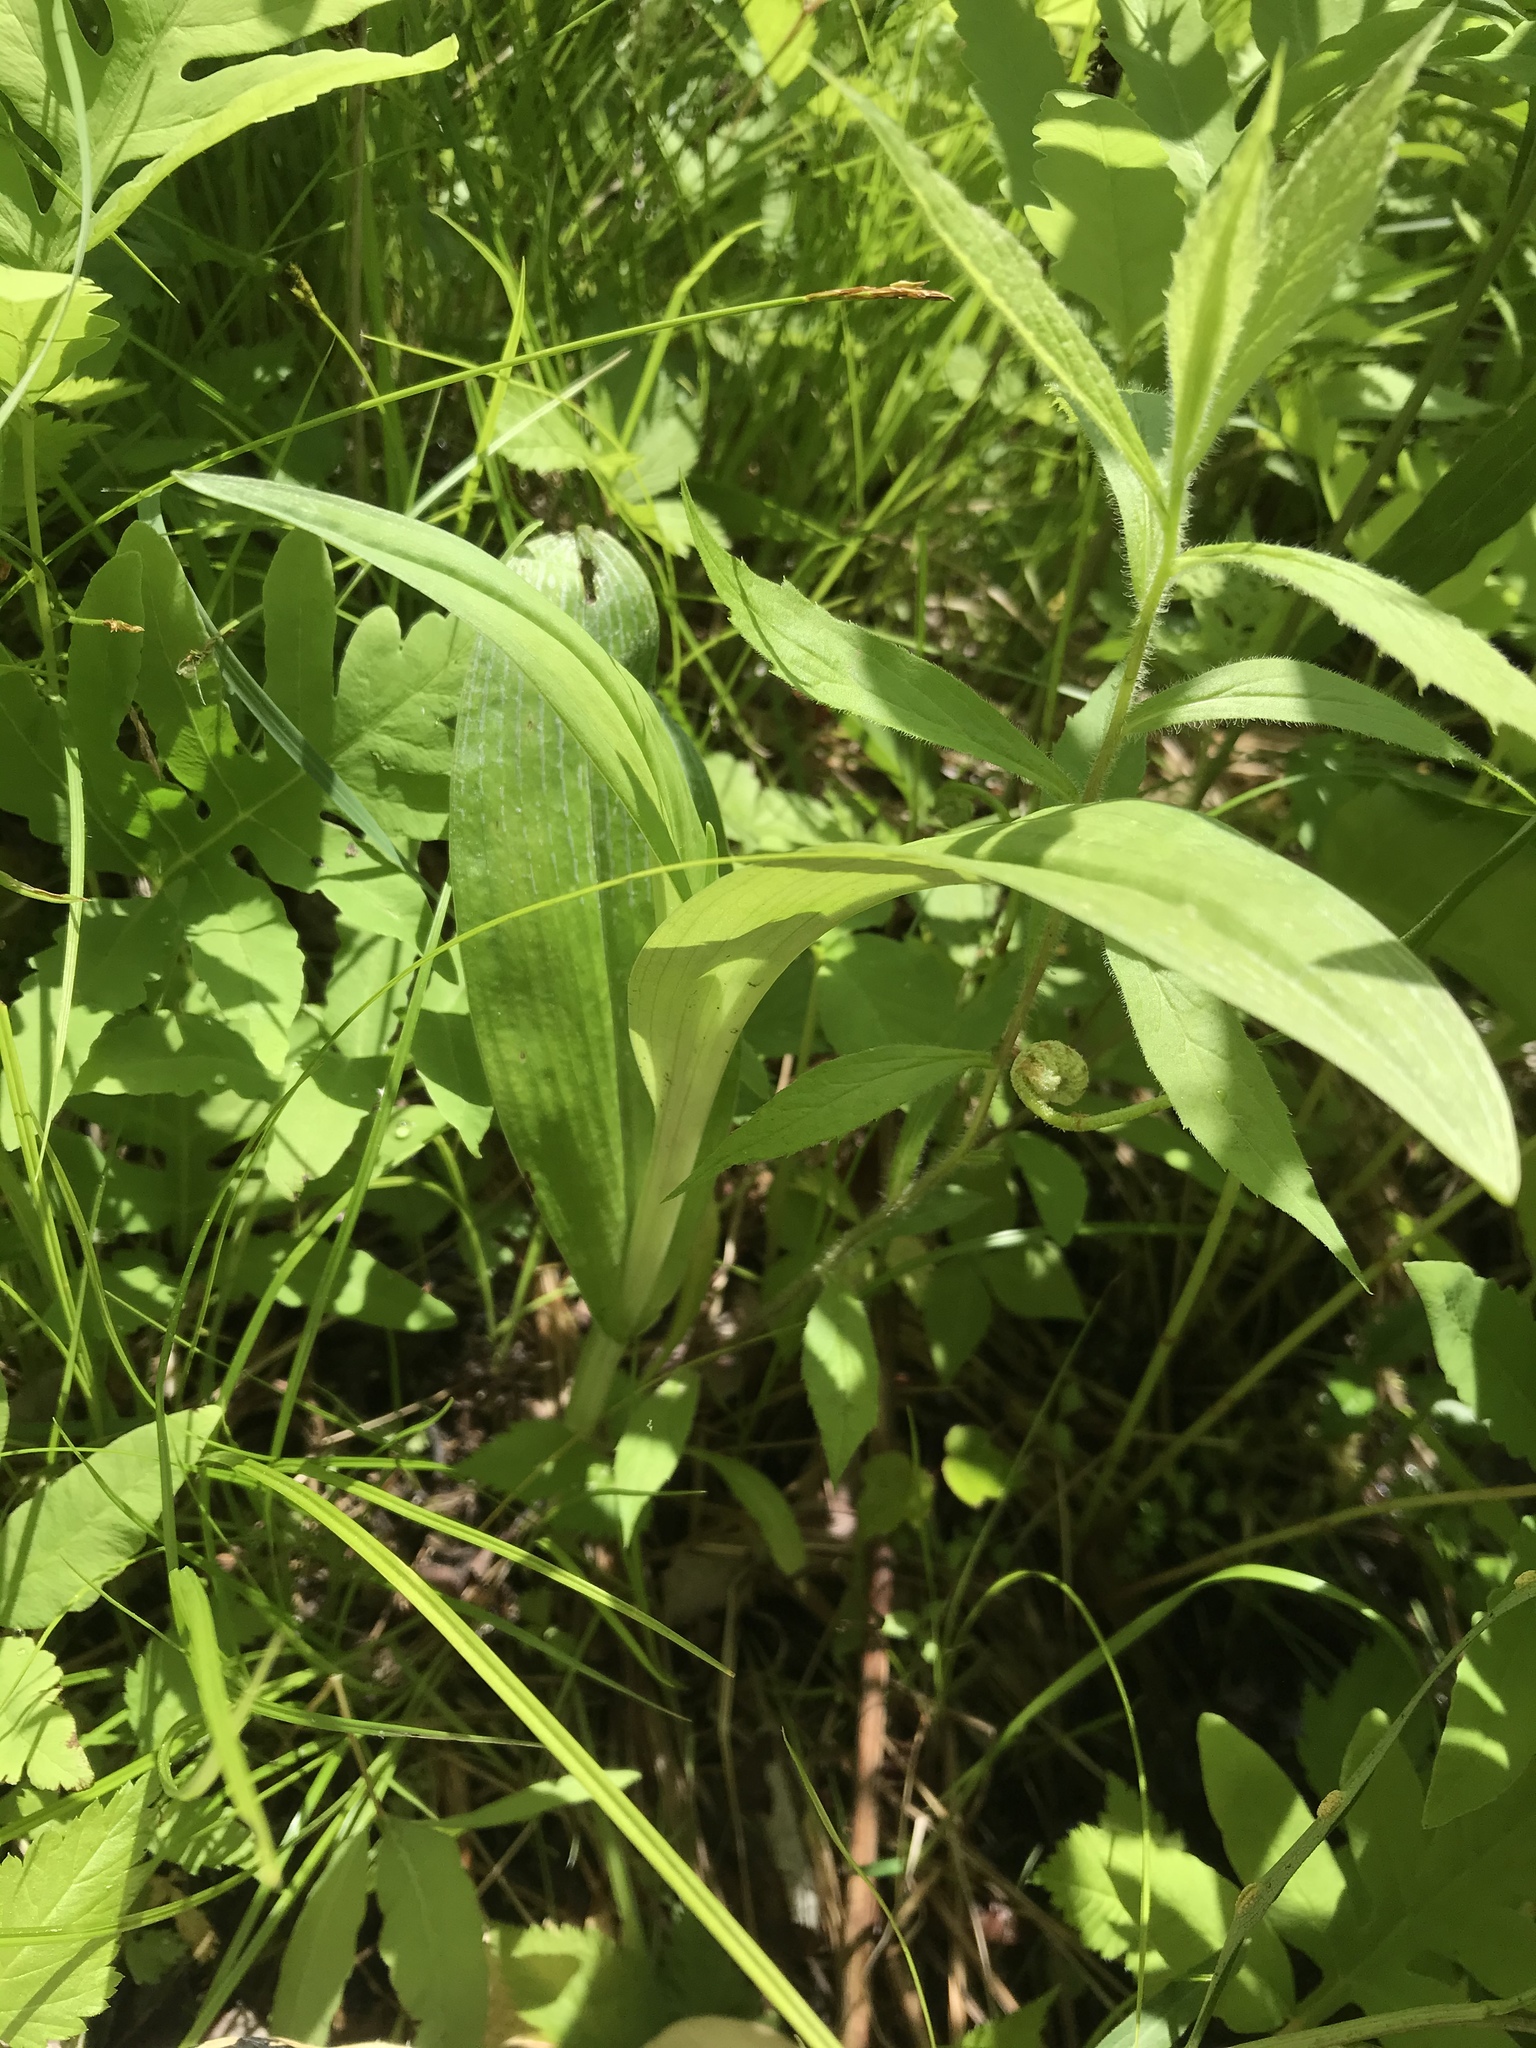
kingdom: Plantae
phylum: Tracheophyta
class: Liliopsida
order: Asparagales
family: Orchidaceae
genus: Platanthera
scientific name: Platanthera lacera
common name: Green fringed orchid
